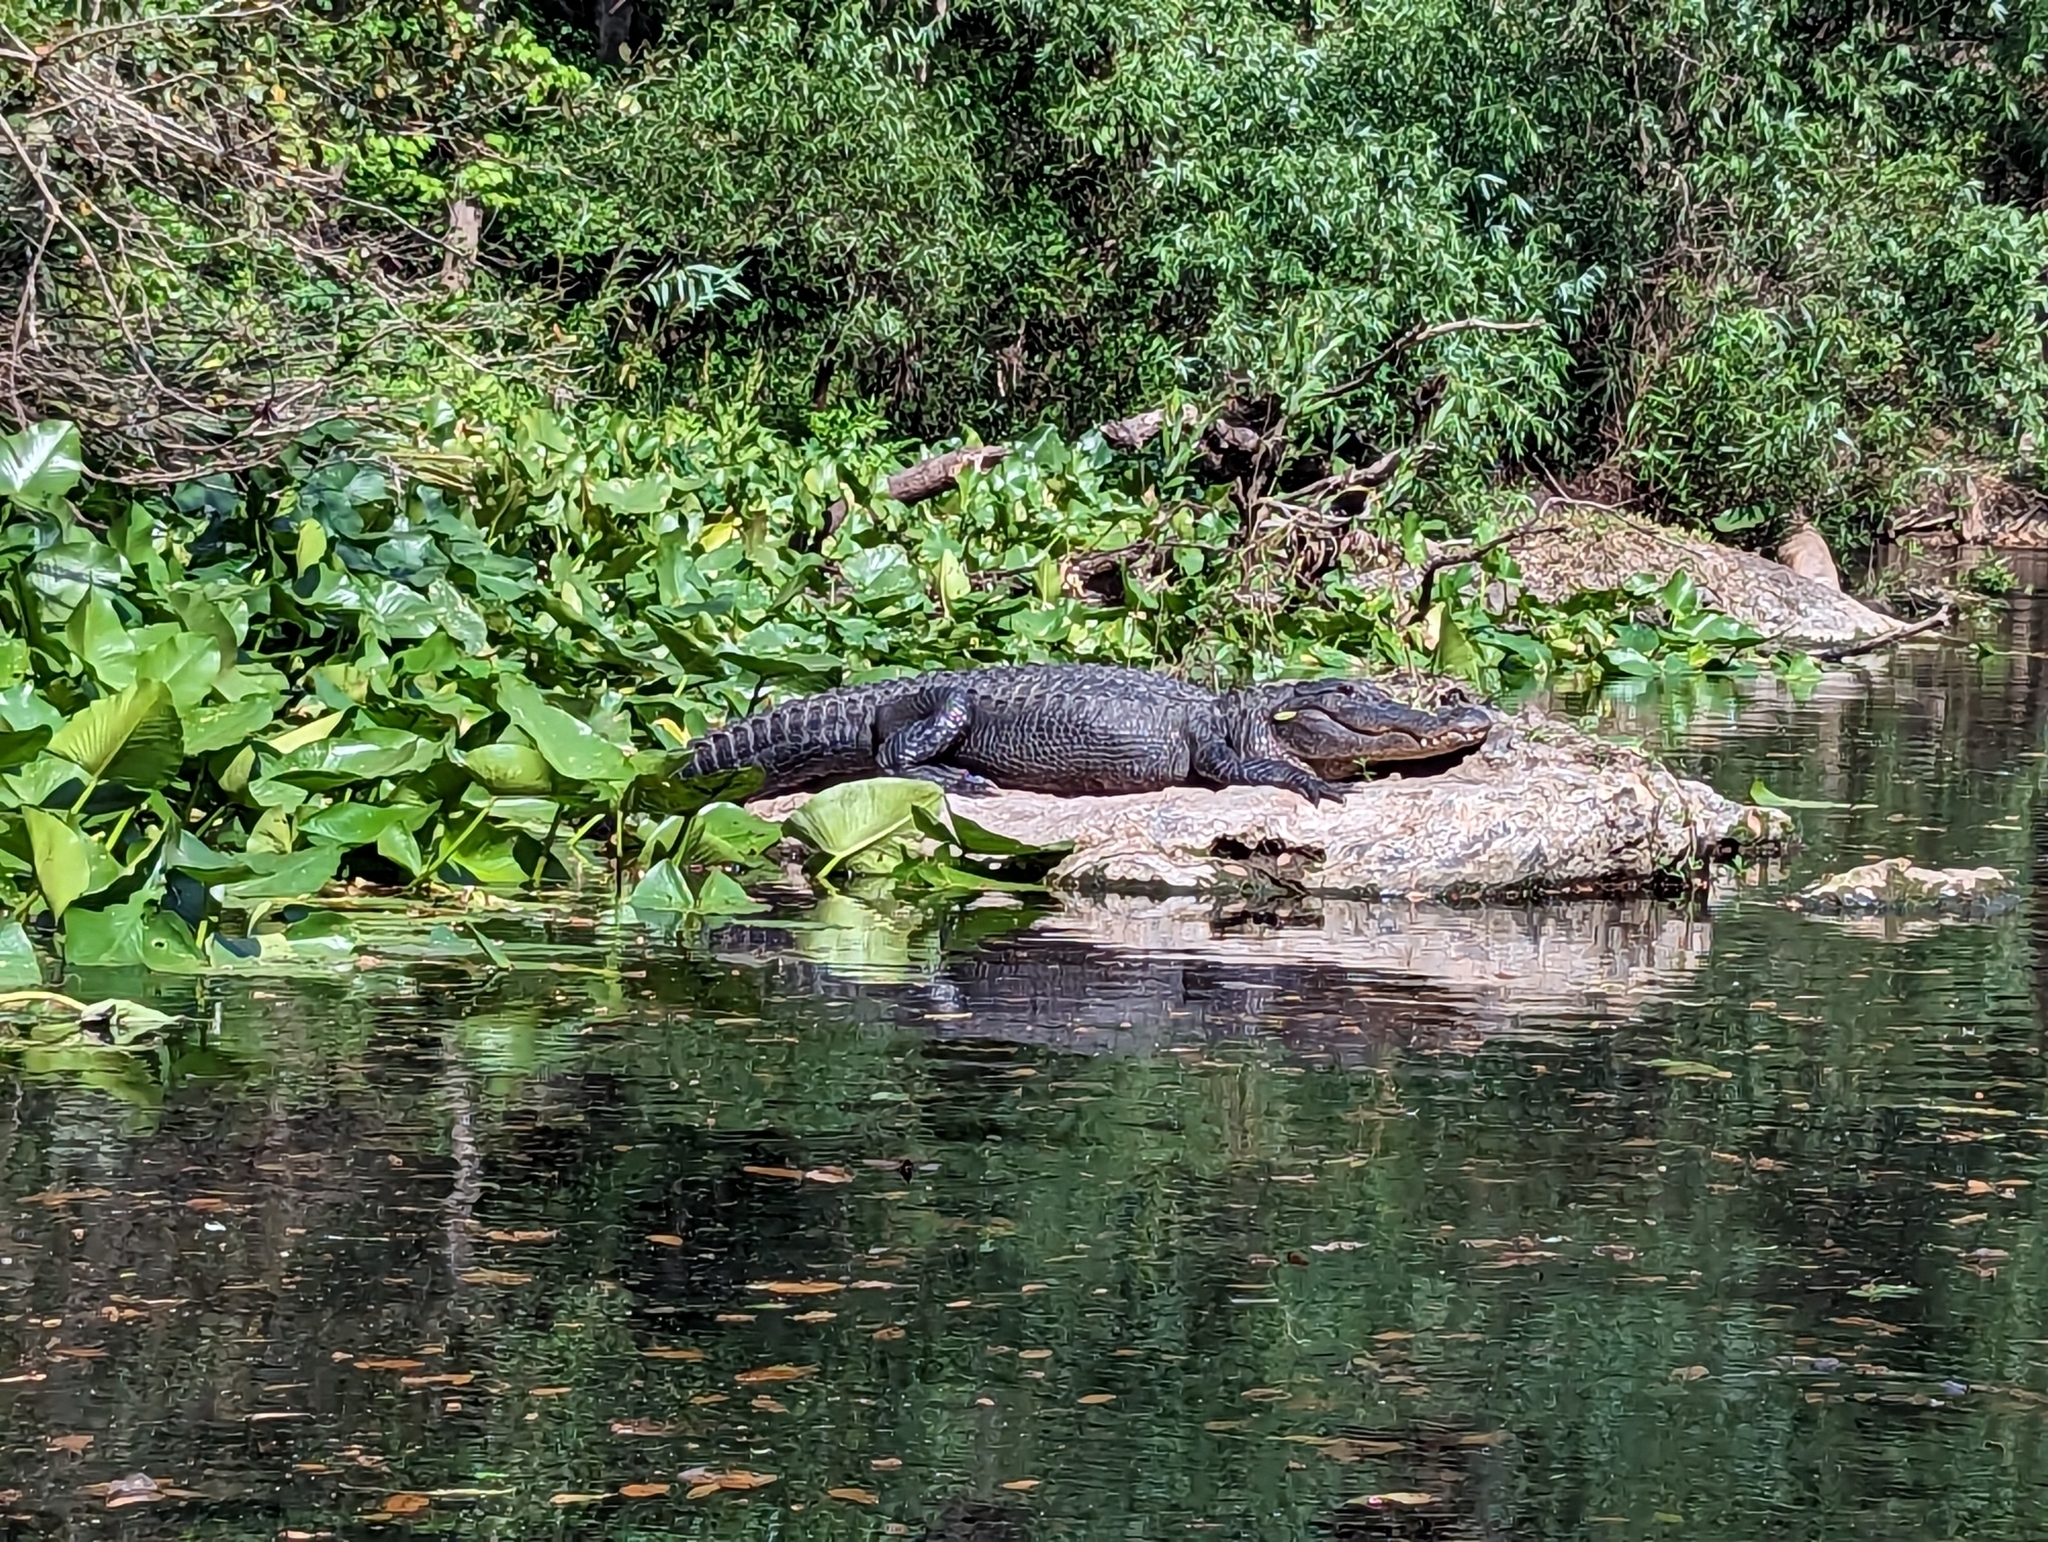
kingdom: Animalia
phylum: Chordata
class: Crocodylia
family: Alligatoridae
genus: Alligator
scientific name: Alligator mississippiensis
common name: American alligator
